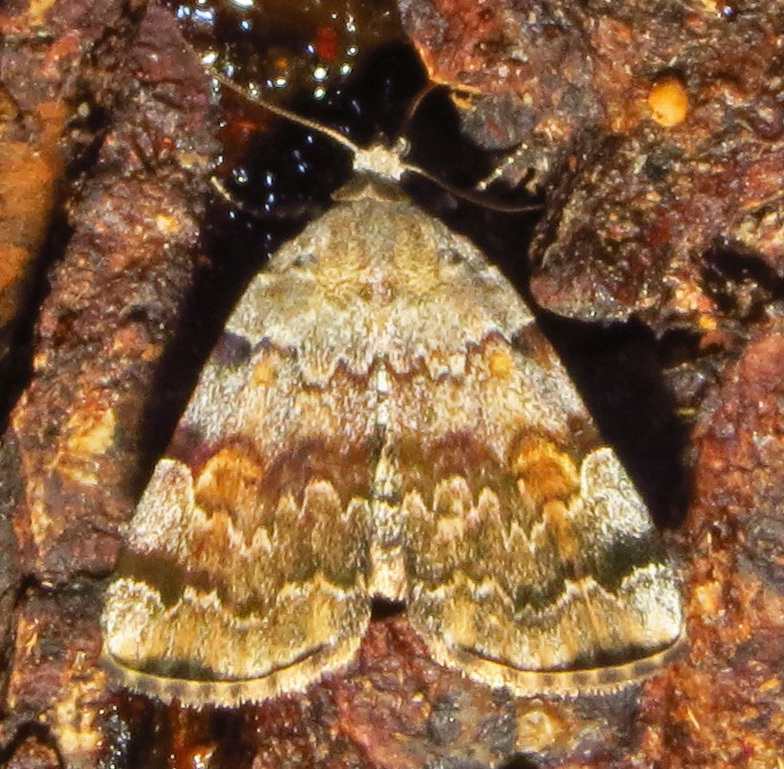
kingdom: Animalia
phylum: Arthropoda
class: Insecta
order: Lepidoptera
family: Erebidae
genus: Idia
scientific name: Idia americalis
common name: American idia moth
